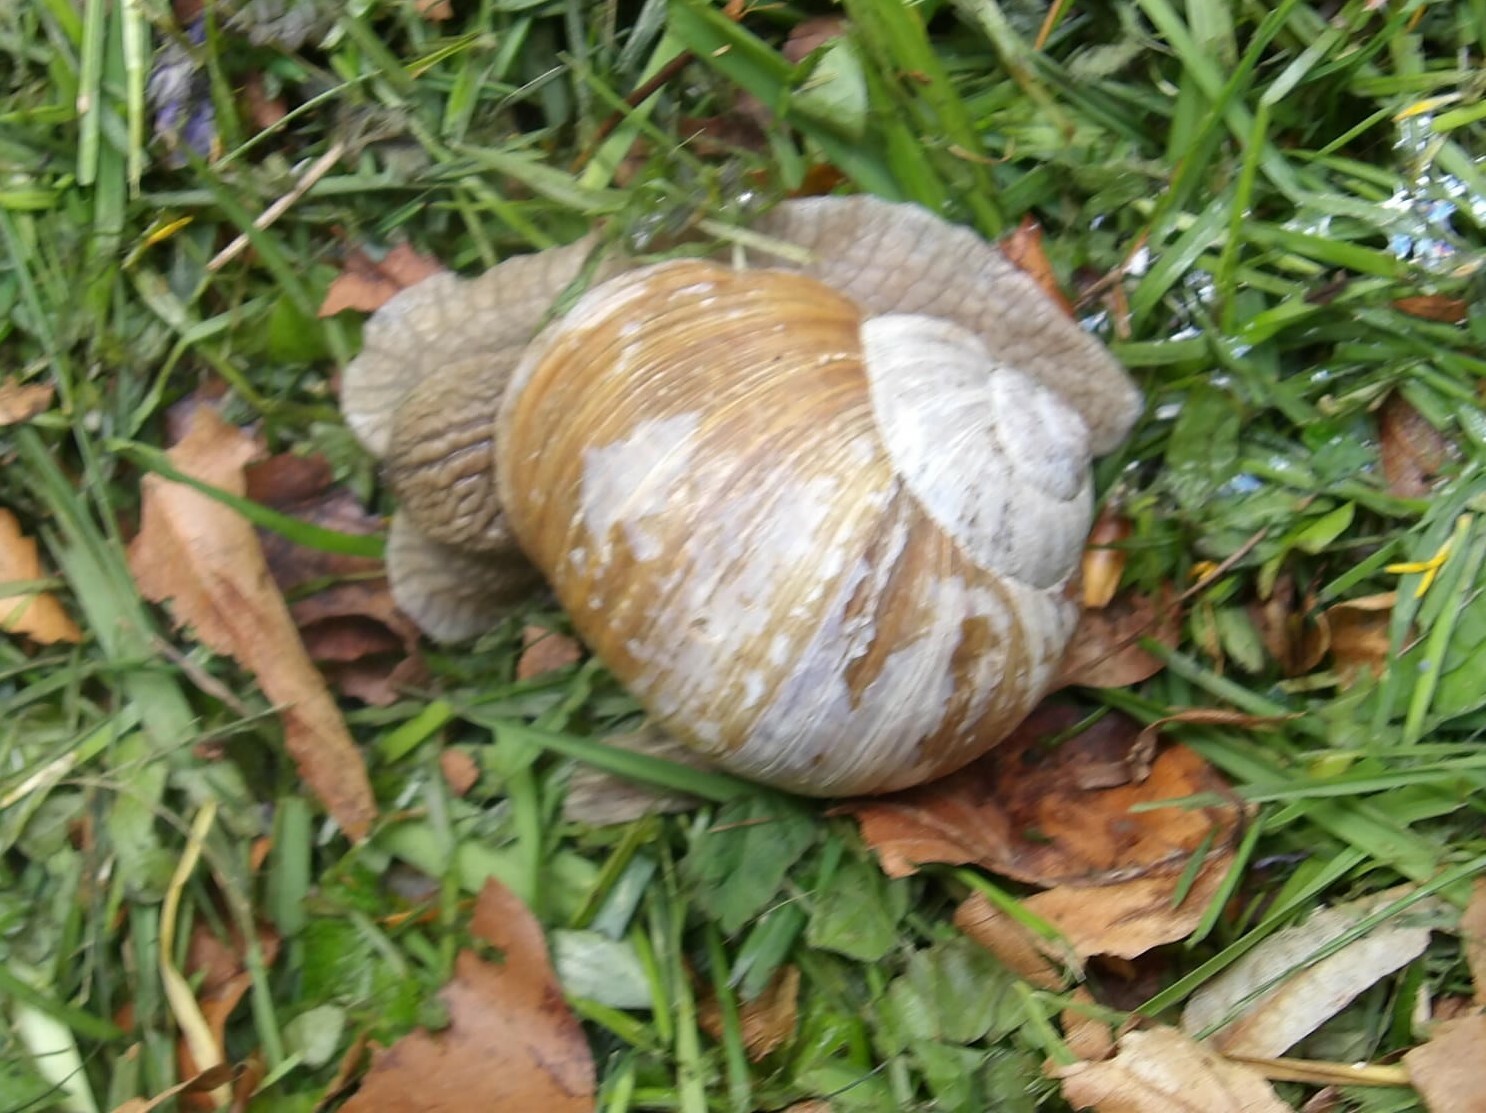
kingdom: Animalia
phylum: Mollusca
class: Gastropoda
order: Stylommatophora
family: Helicidae
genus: Helix
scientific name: Helix pomatia
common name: Roman snail
